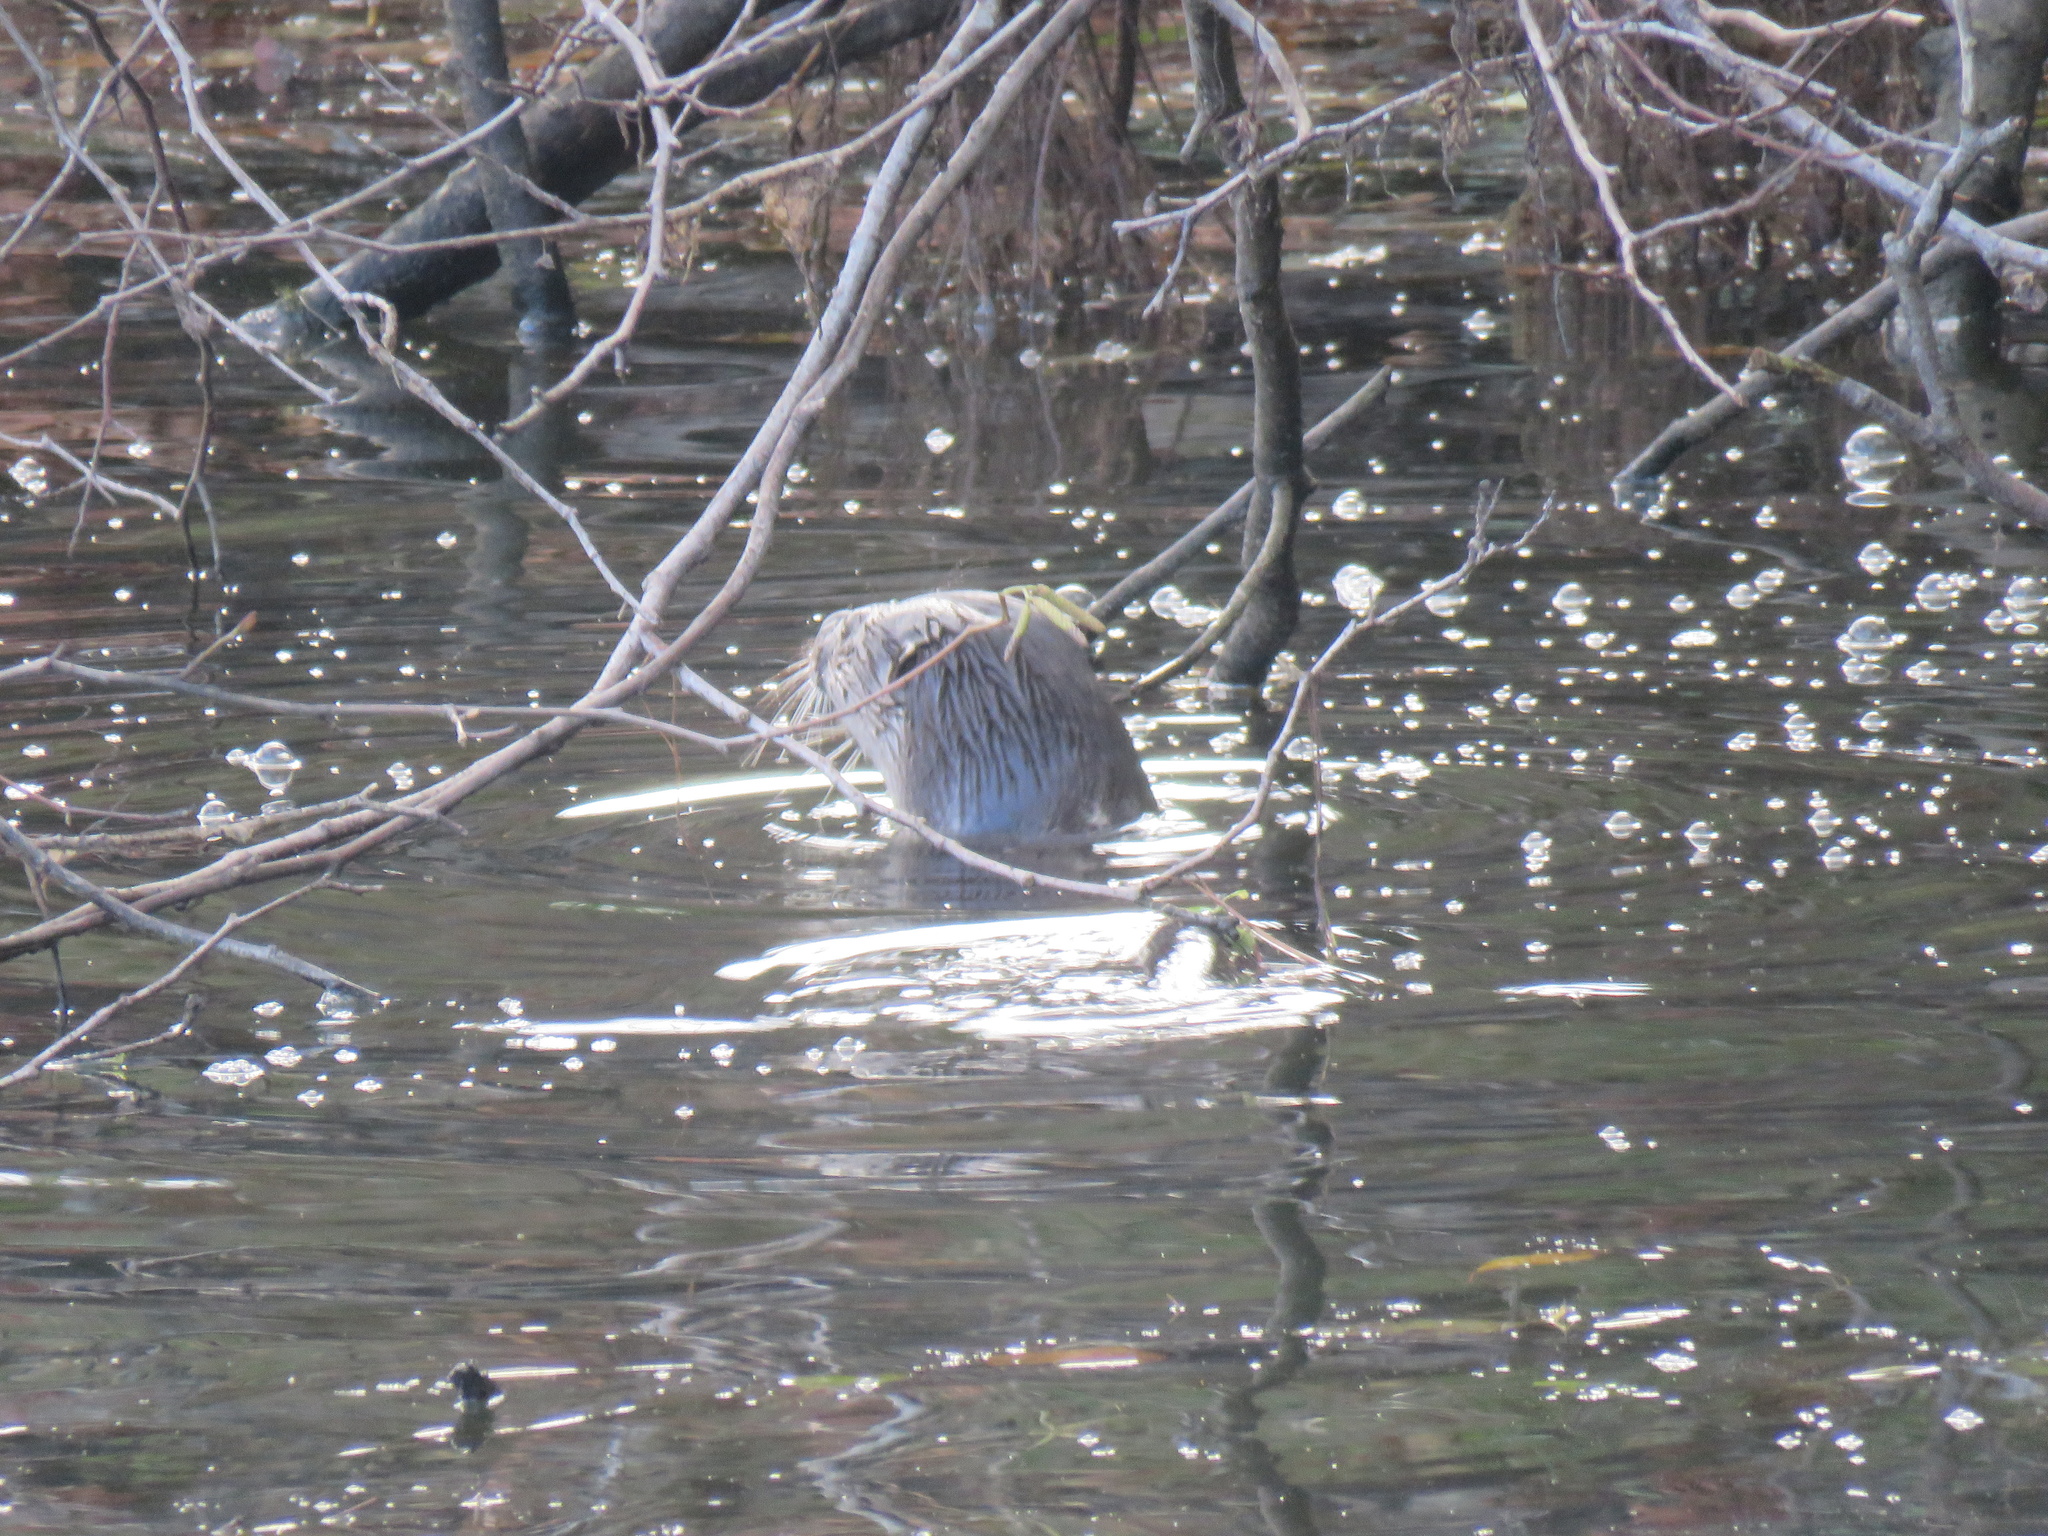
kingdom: Animalia
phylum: Chordata
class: Mammalia
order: Carnivora
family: Mustelidae
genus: Lontra
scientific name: Lontra canadensis
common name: North american river otter
